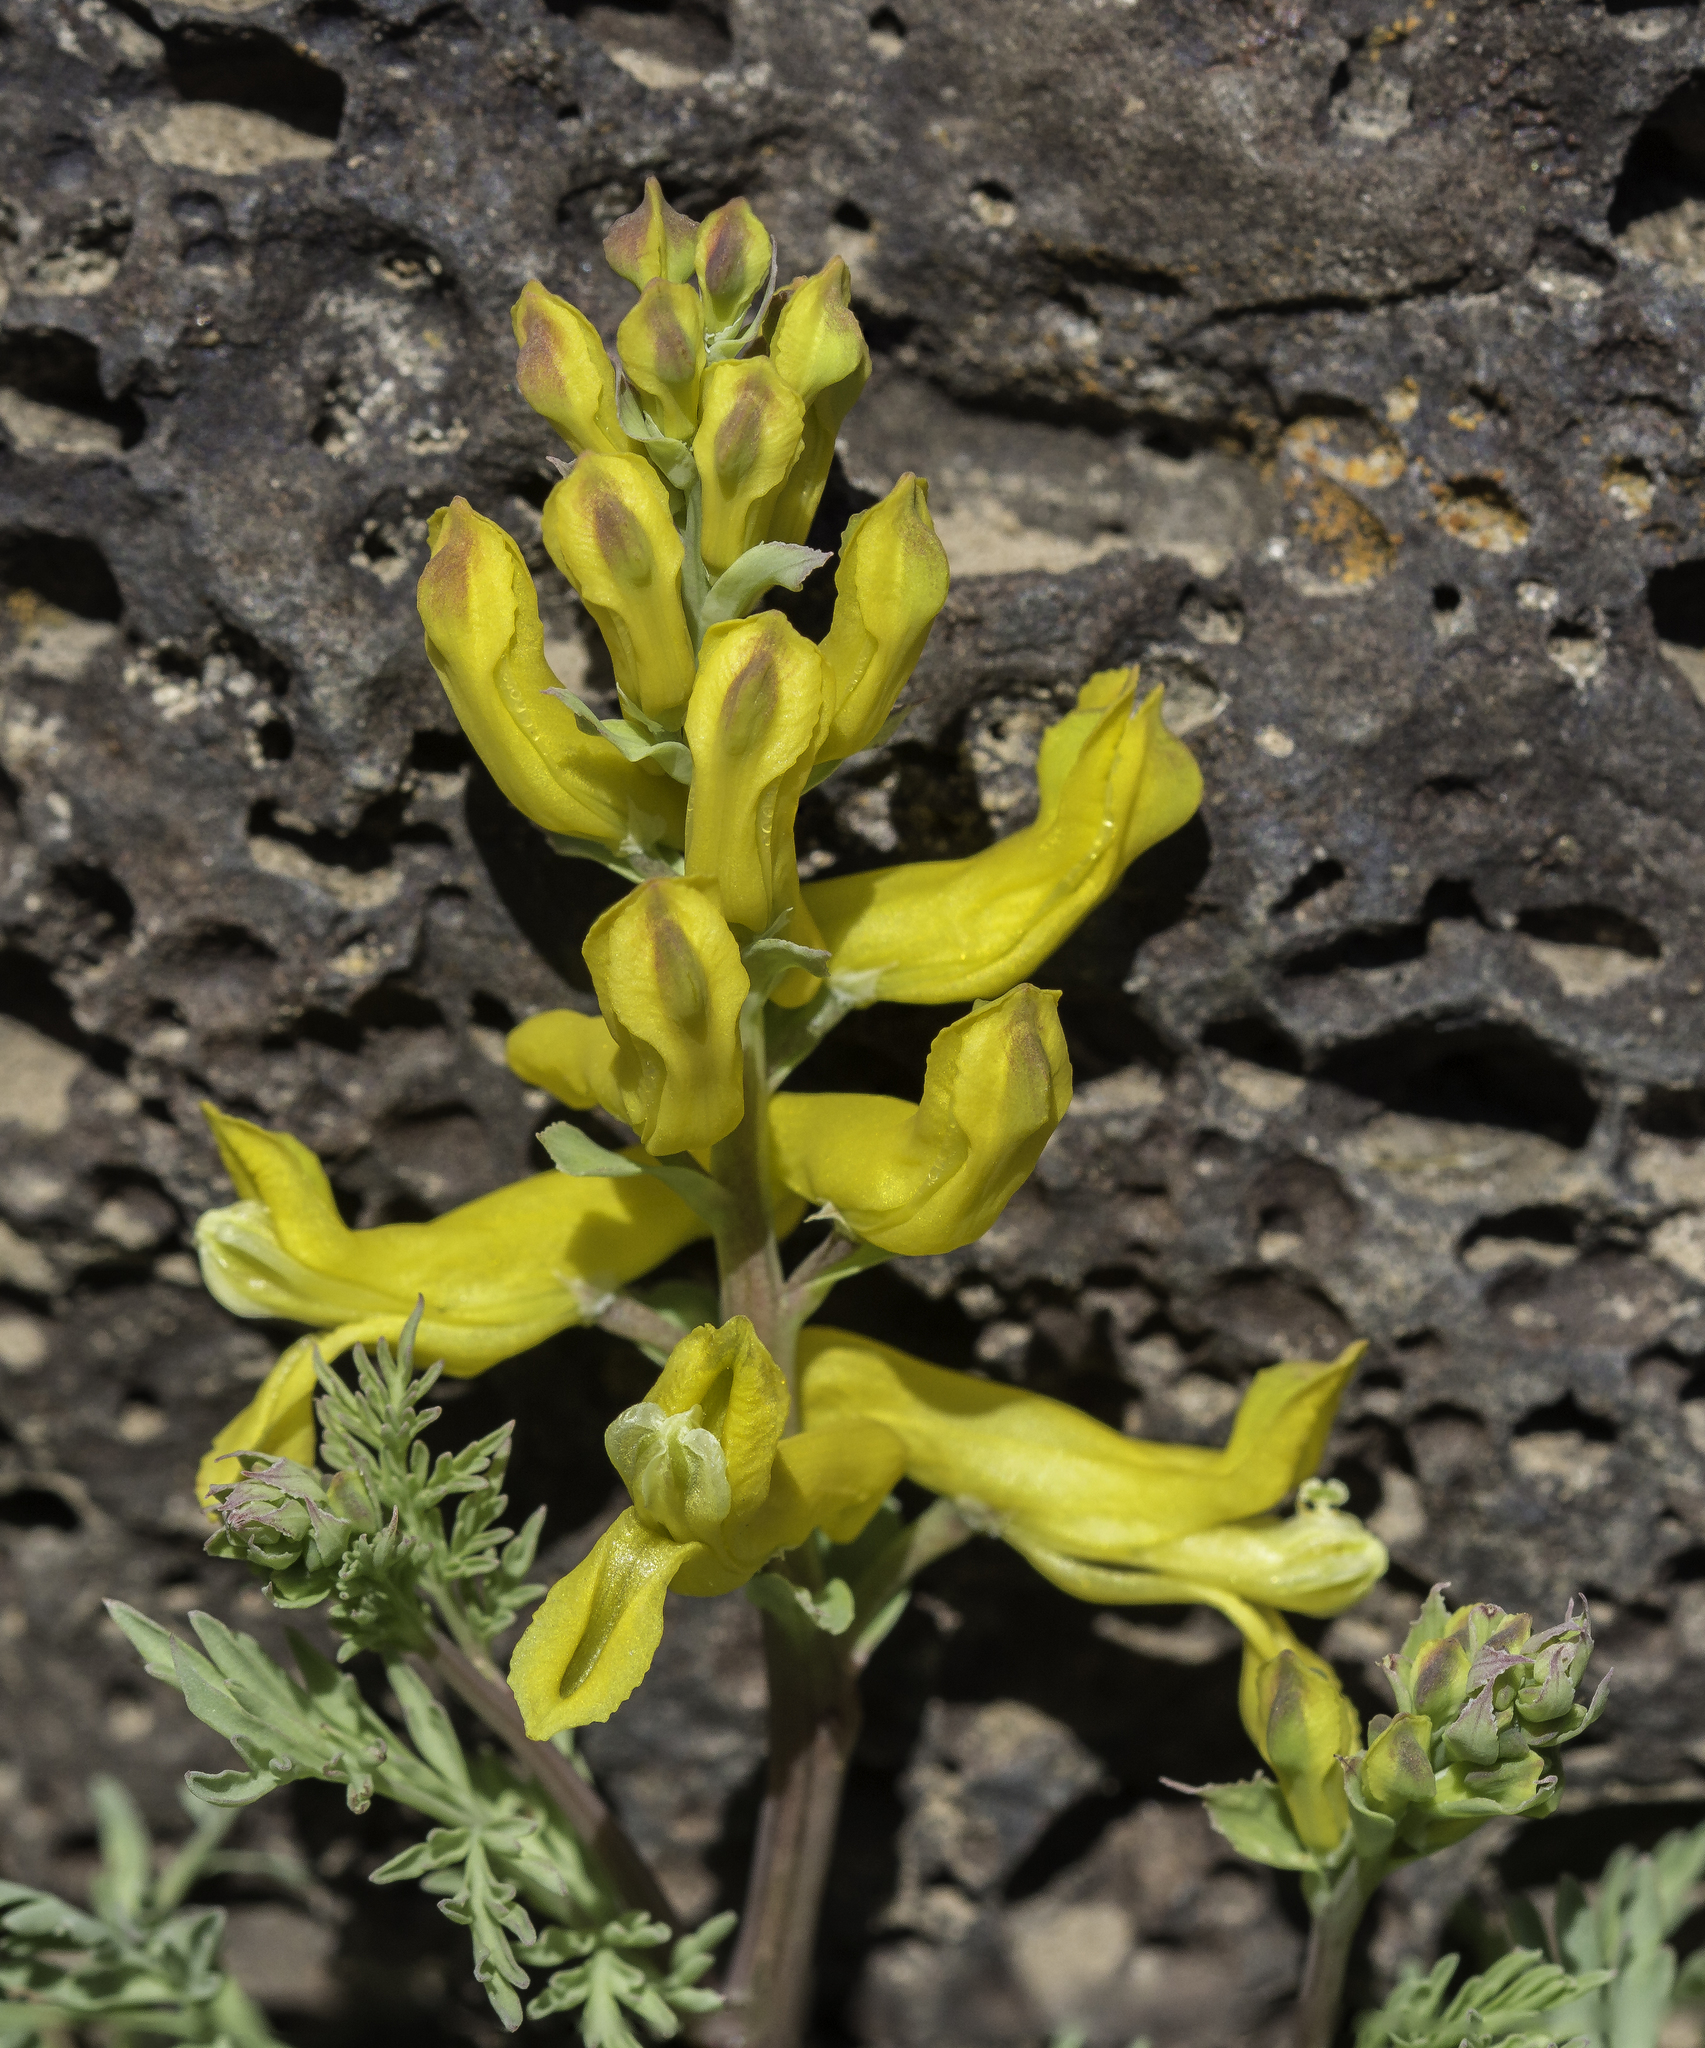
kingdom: Plantae
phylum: Tracheophyta
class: Magnoliopsida
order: Ranunculales
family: Papaveraceae
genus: Corydalis
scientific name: Corydalis aurea
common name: Golden corydalis
